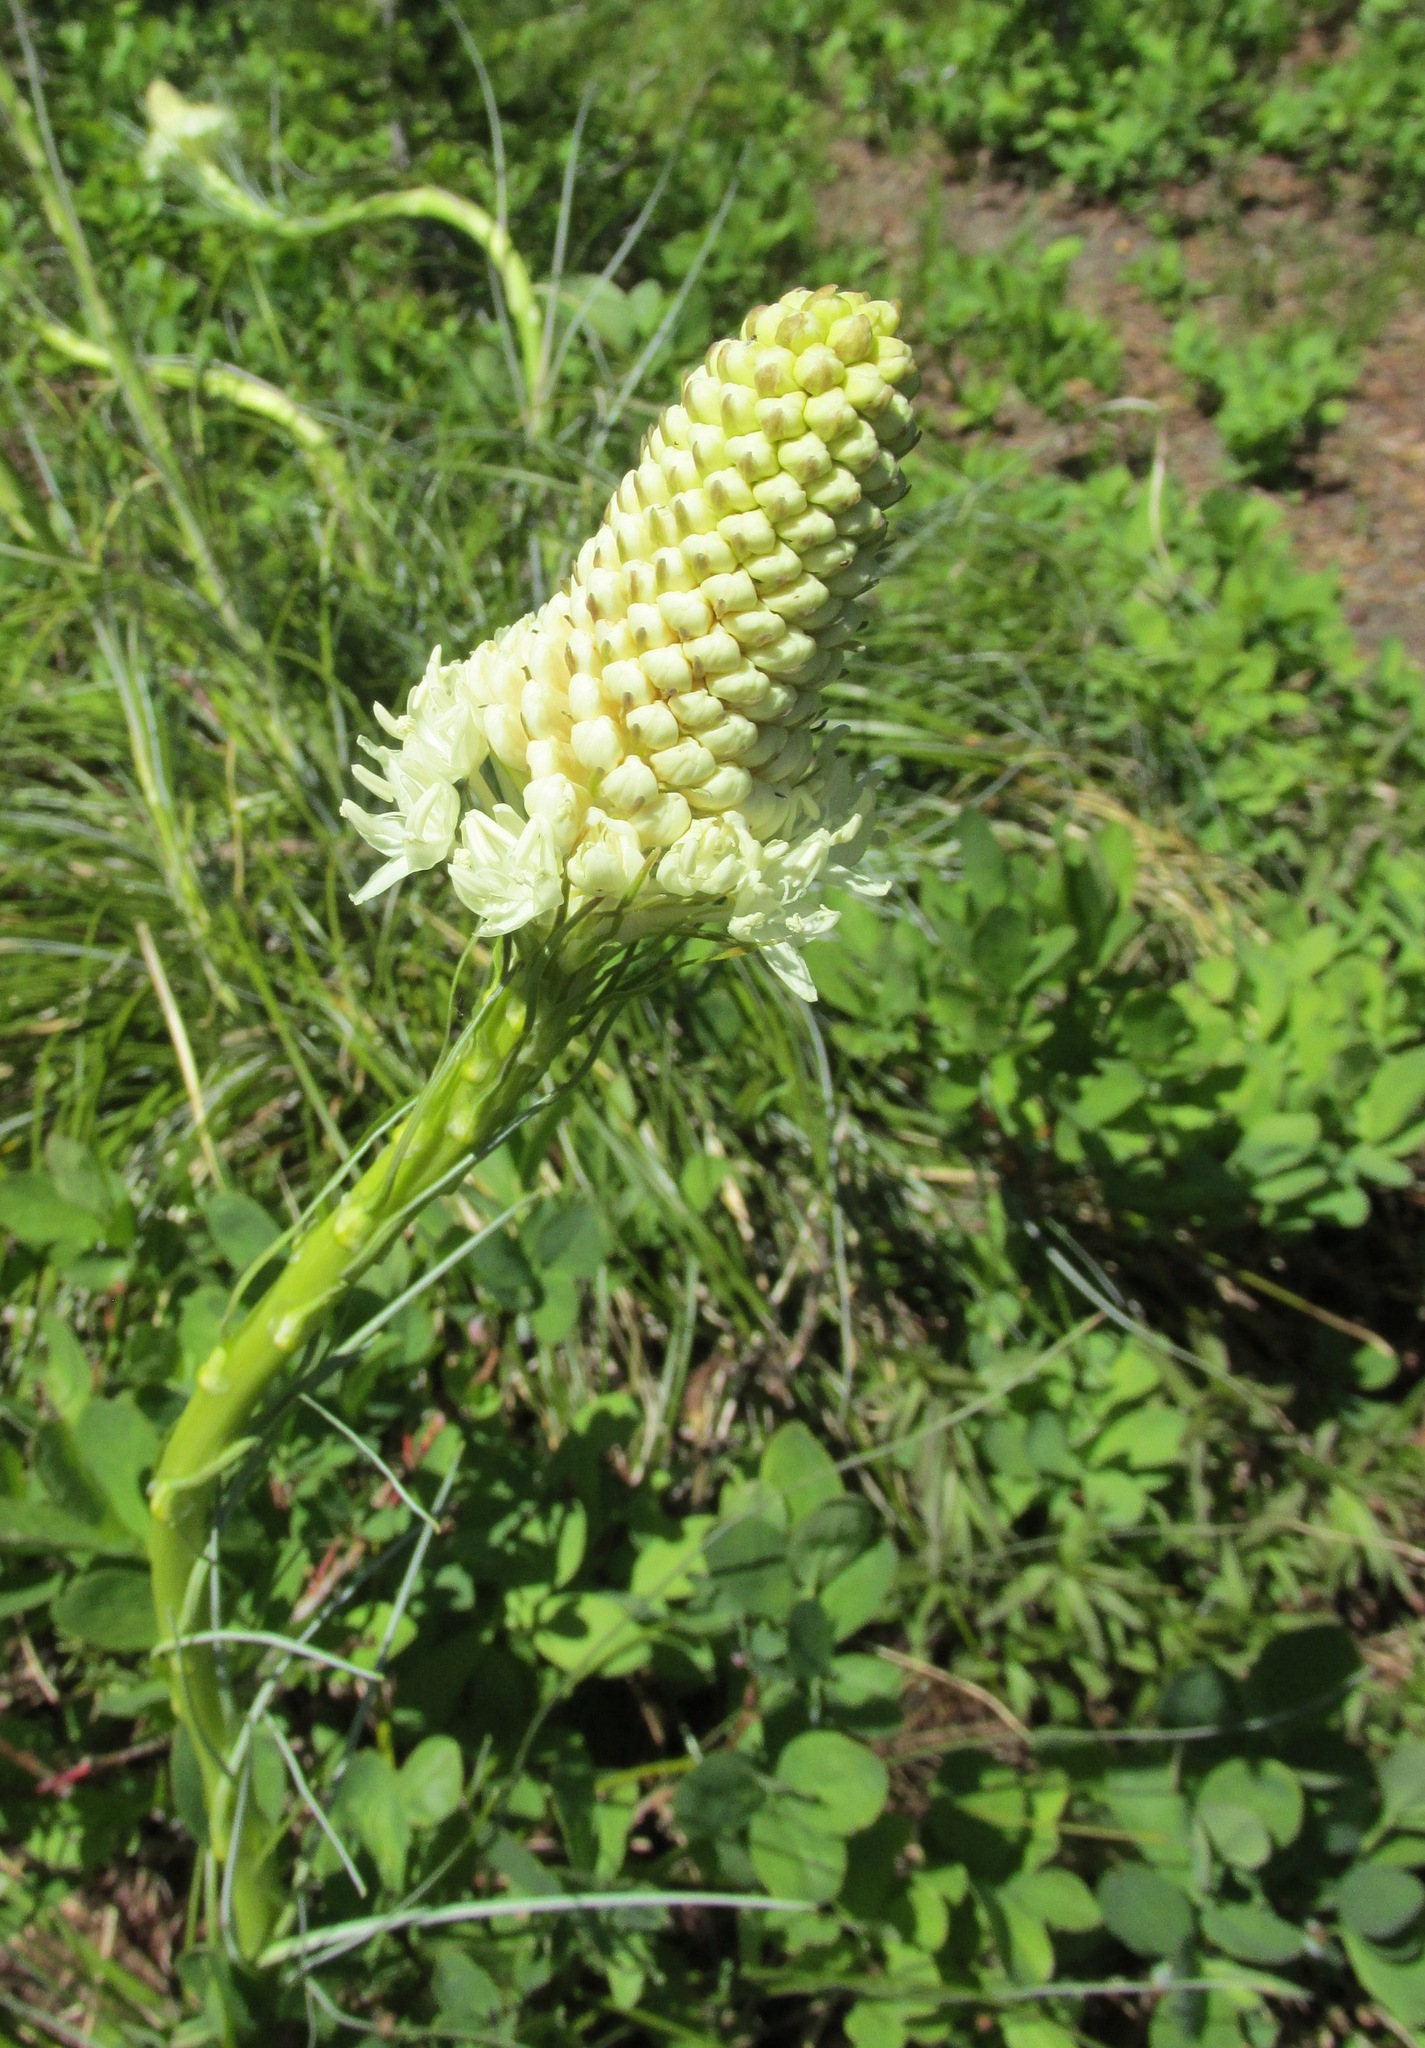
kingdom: Plantae
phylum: Tracheophyta
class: Liliopsida
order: Liliales
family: Melanthiaceae
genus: Xerophyllum
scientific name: Xerophyllum tenax
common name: Bear-grass
